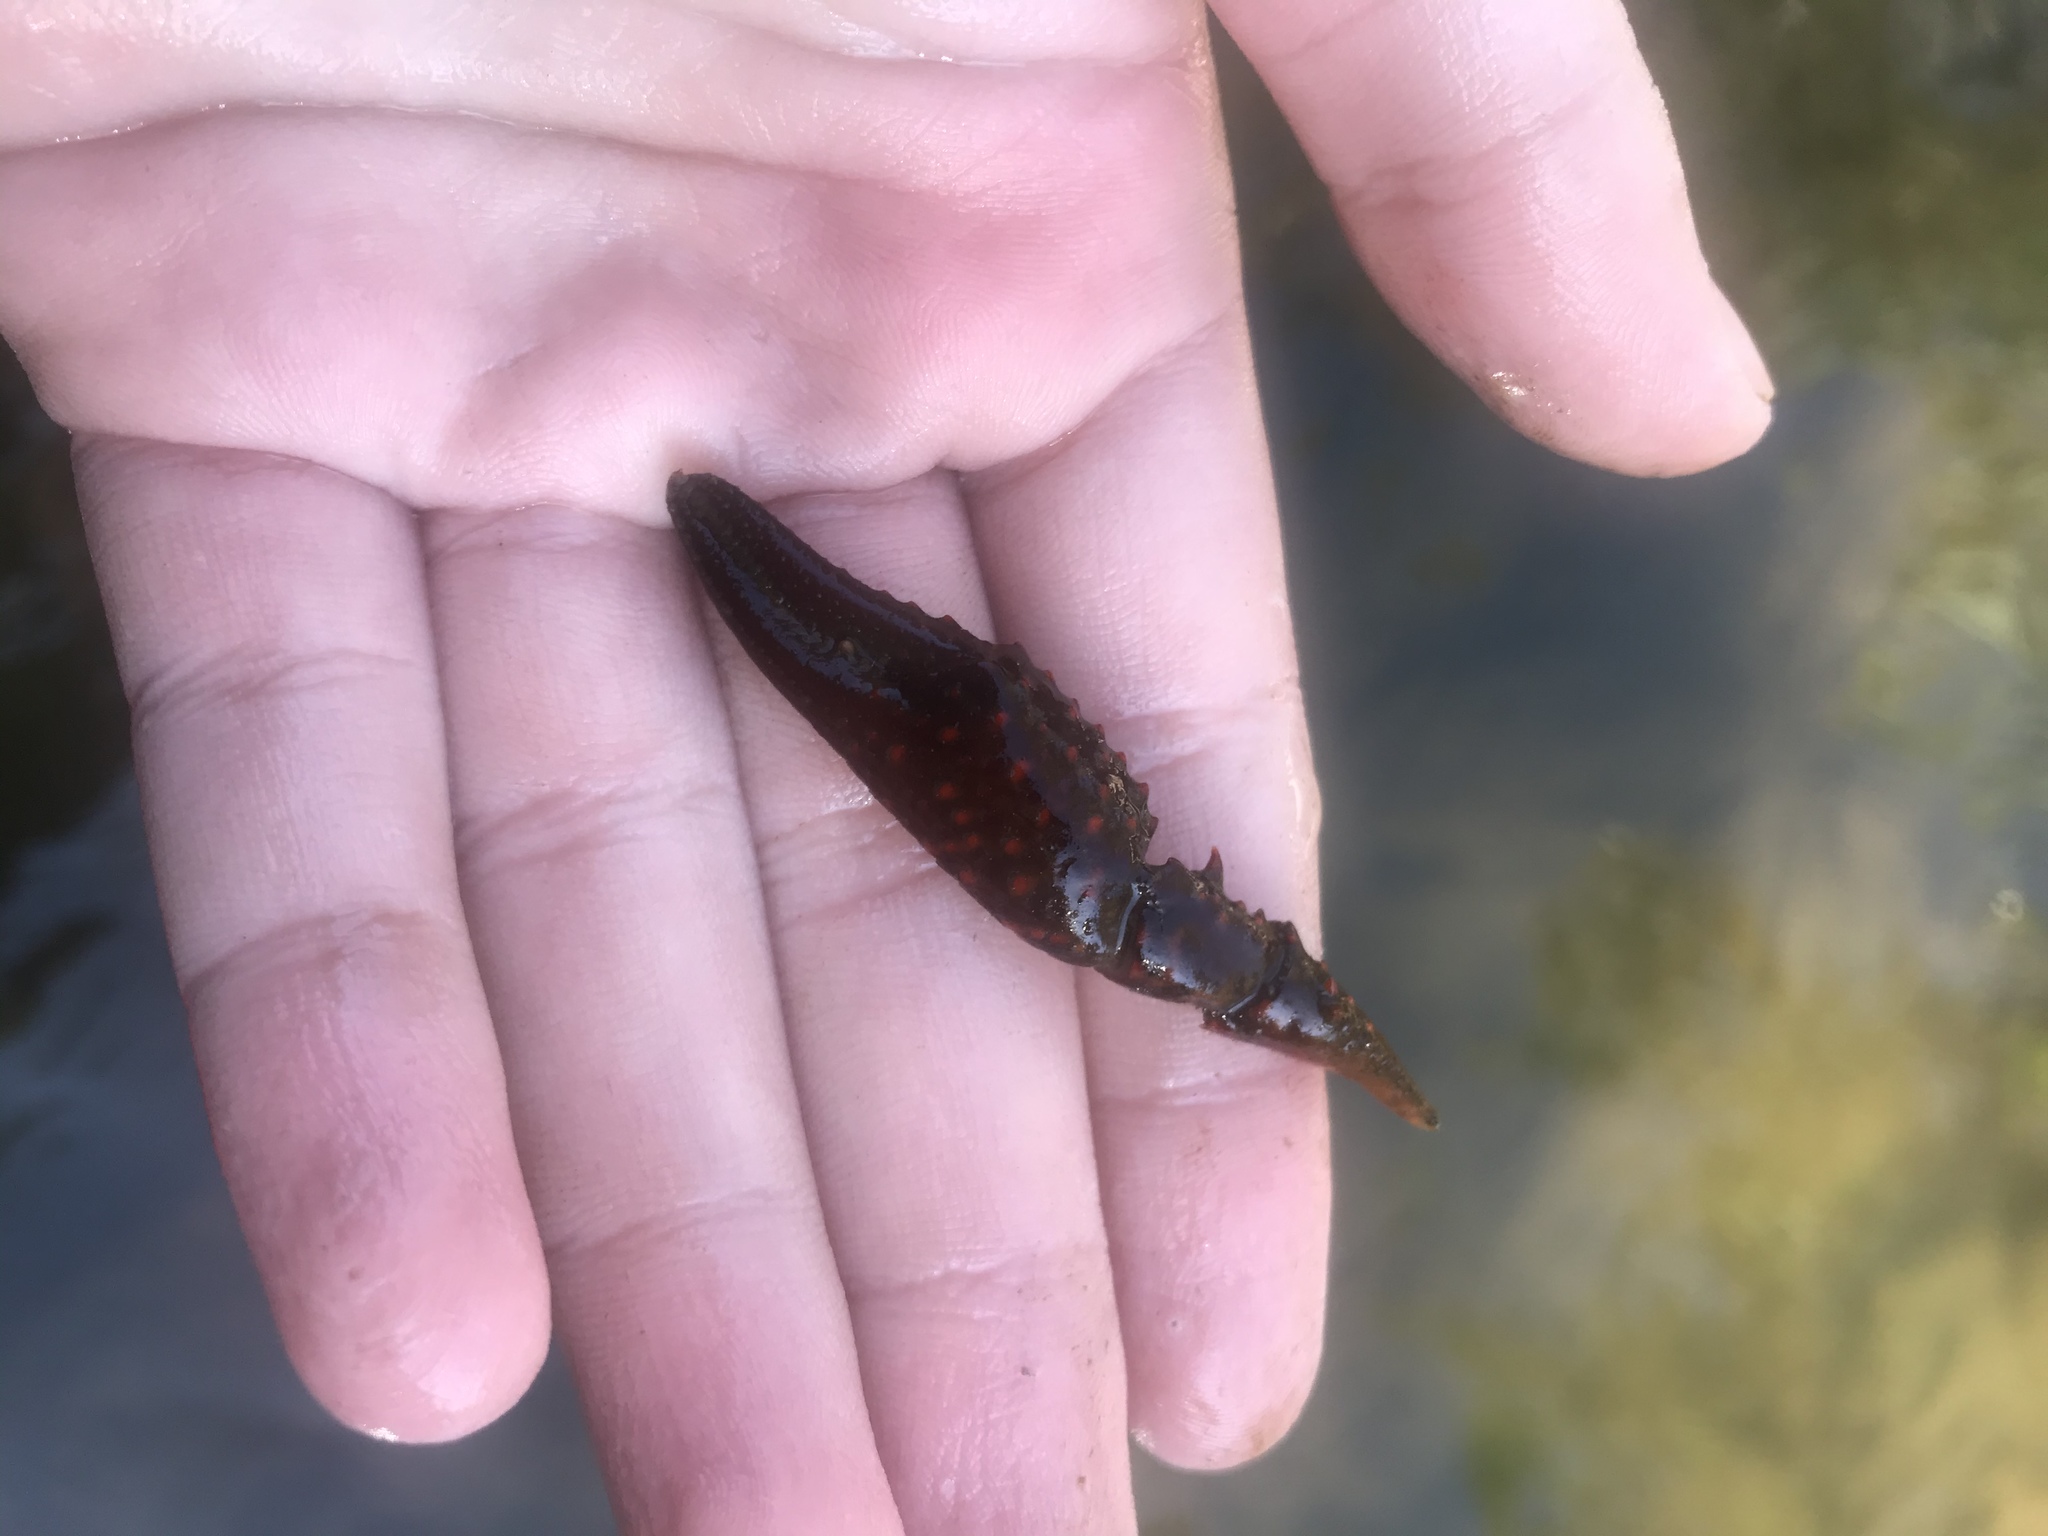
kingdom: Animalia
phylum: Arthropoda
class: Malacostraca
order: Decapoda
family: Cambaridae
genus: Procambarus
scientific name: Procambarus clarkii
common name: Red swamp crayfish
